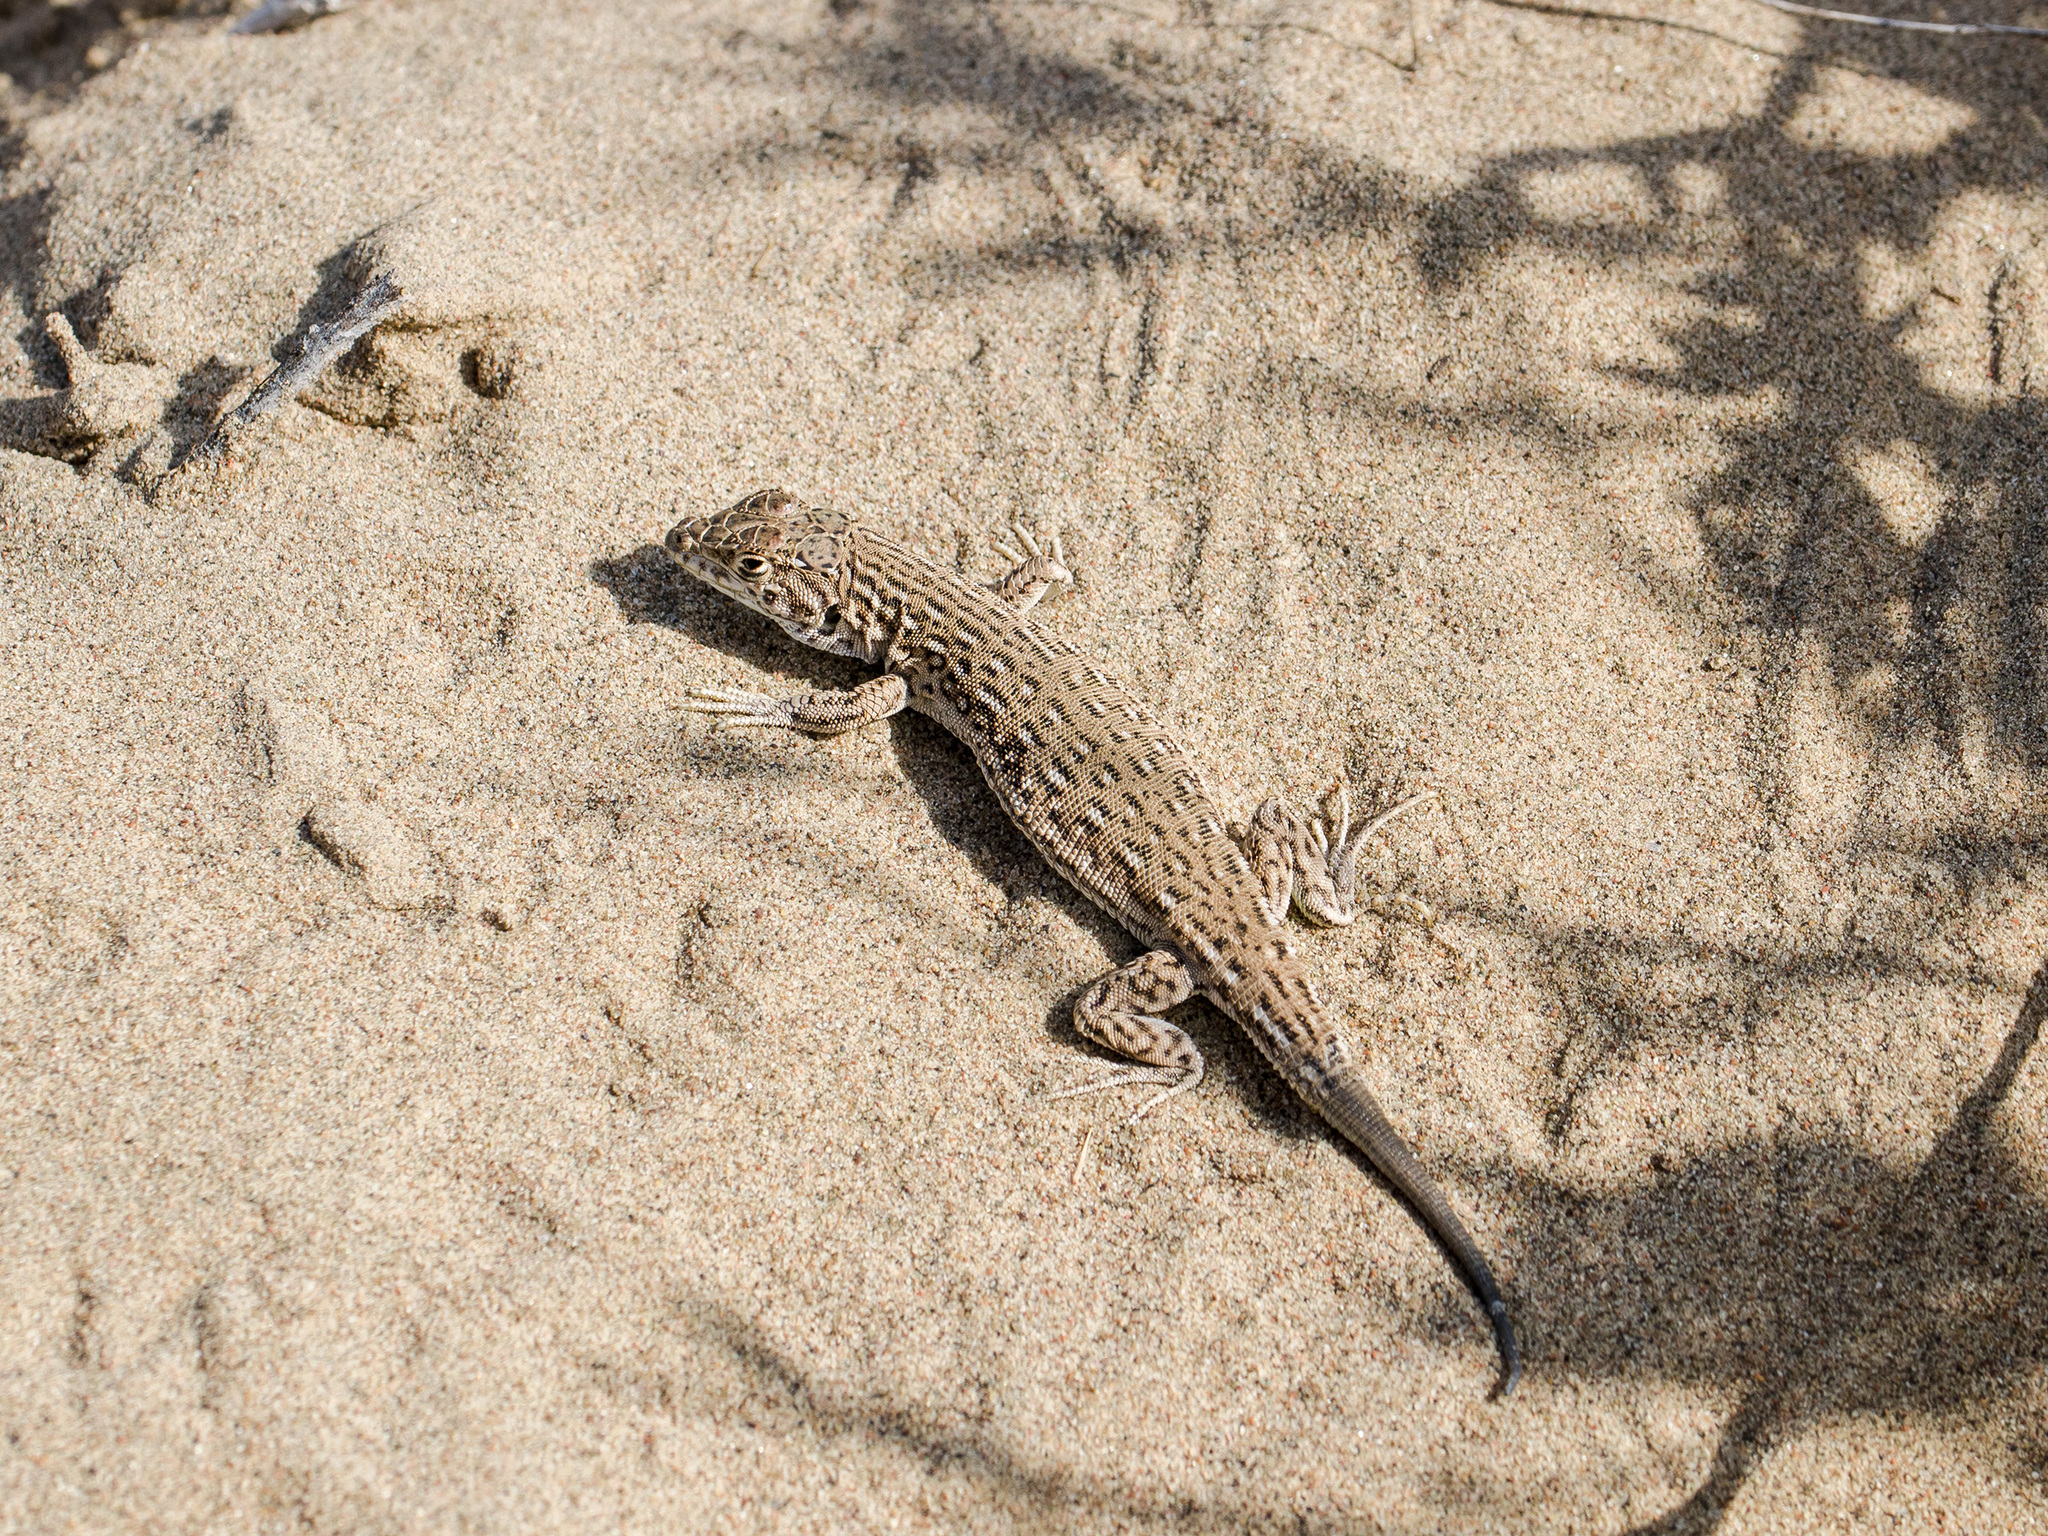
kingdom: Animalia
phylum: Chordata
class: Squamata
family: Lacertidae
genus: Eremias
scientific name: Eremias intermedia
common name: Aralo-caspian racerunner
